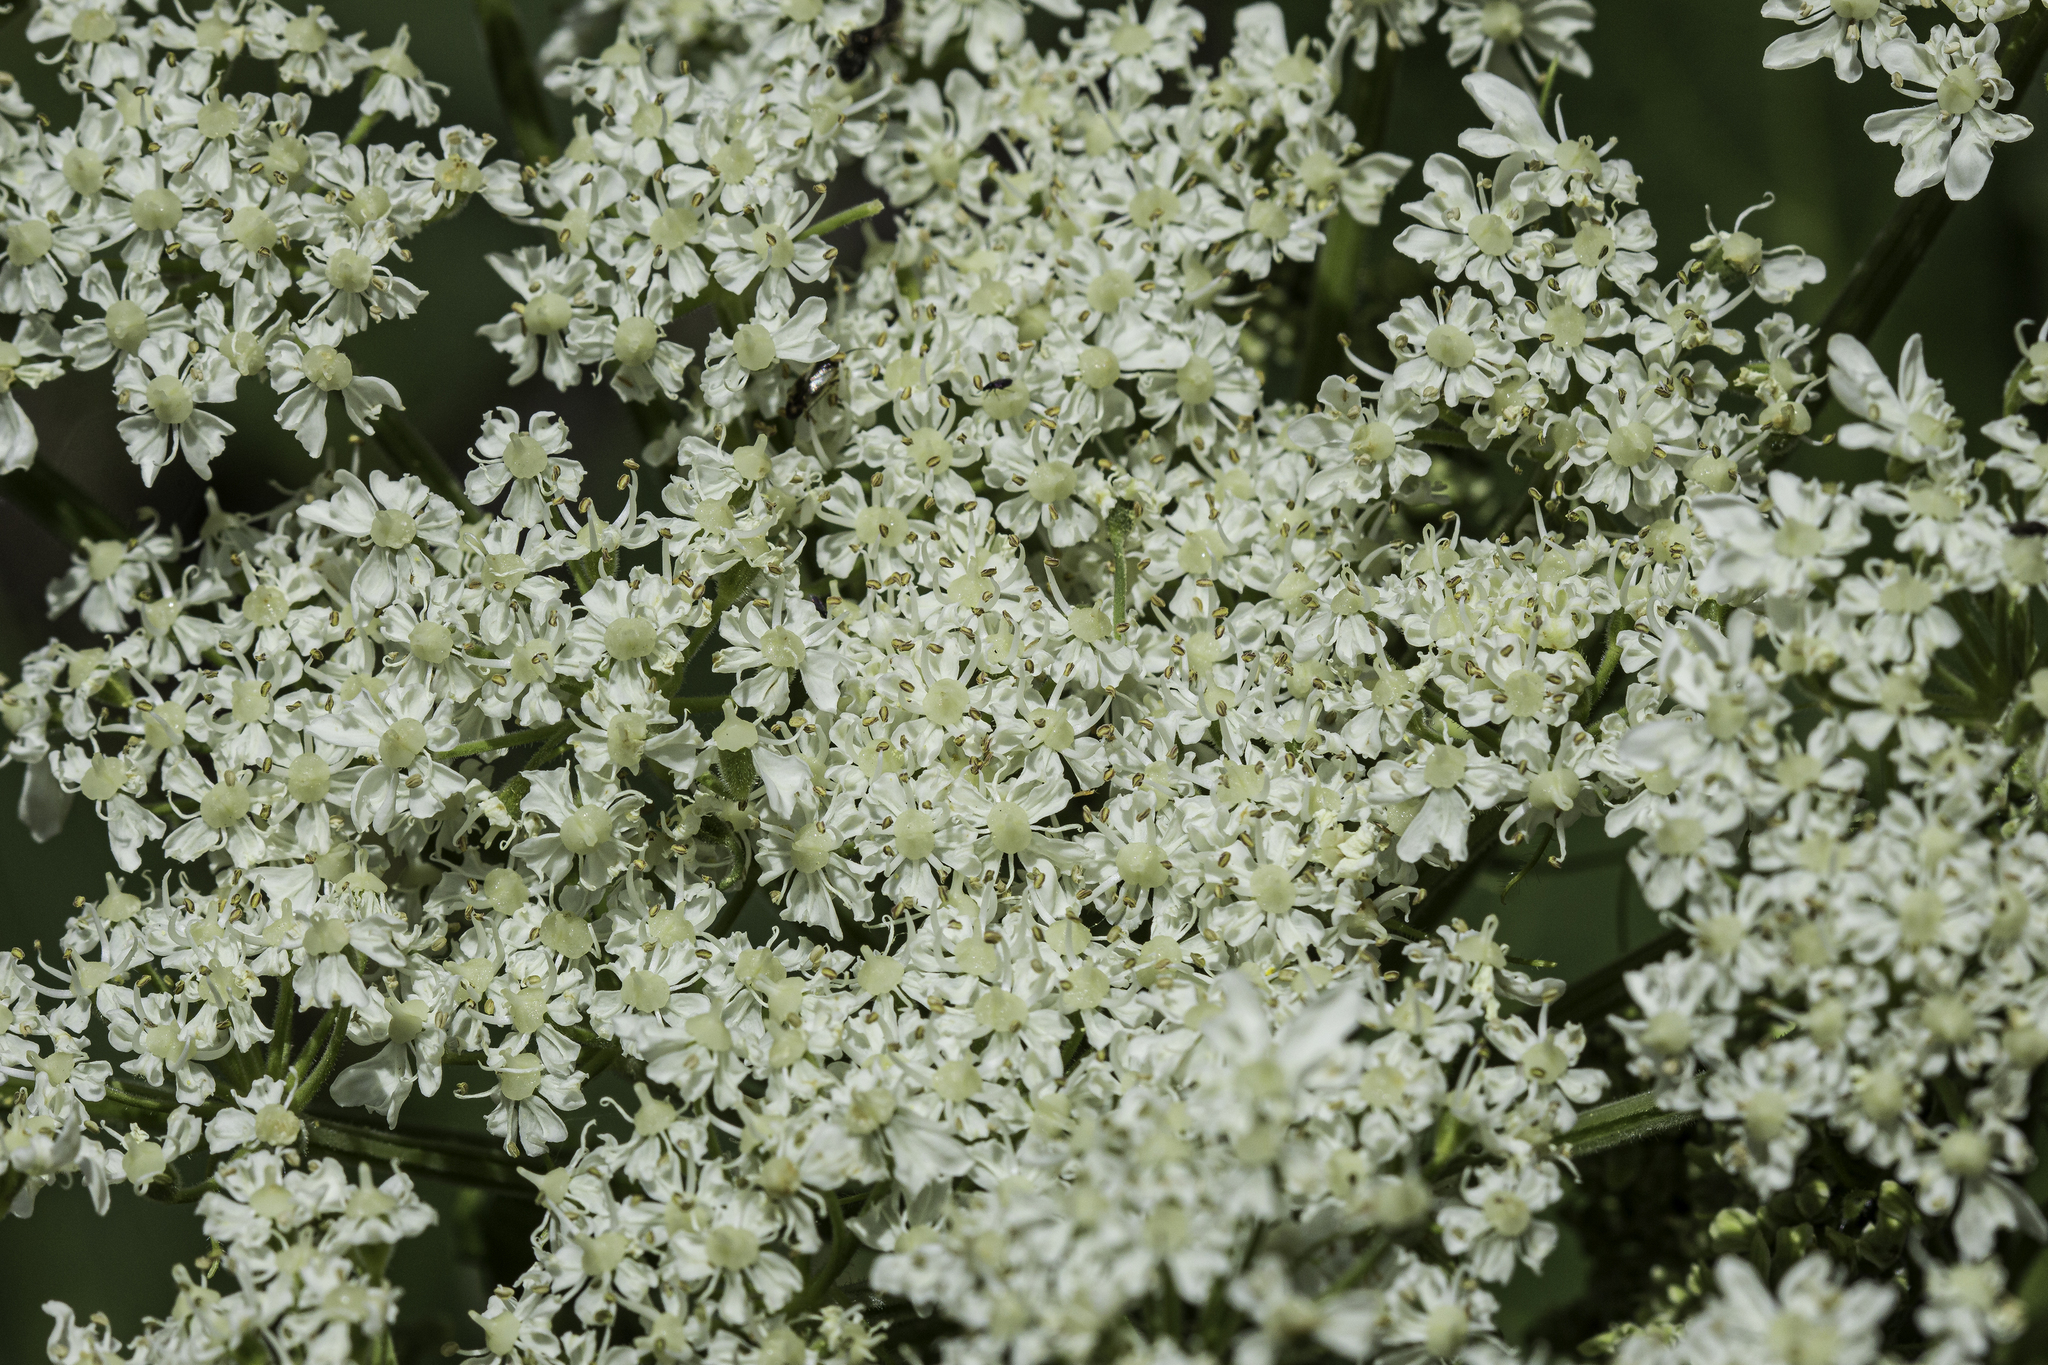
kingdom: Plantae
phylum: Tracheophyta
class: Magnoliopsida
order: Apiales
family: Apiaceae
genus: Heracleum
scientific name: Heracleum maximum
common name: American cow parsnip
